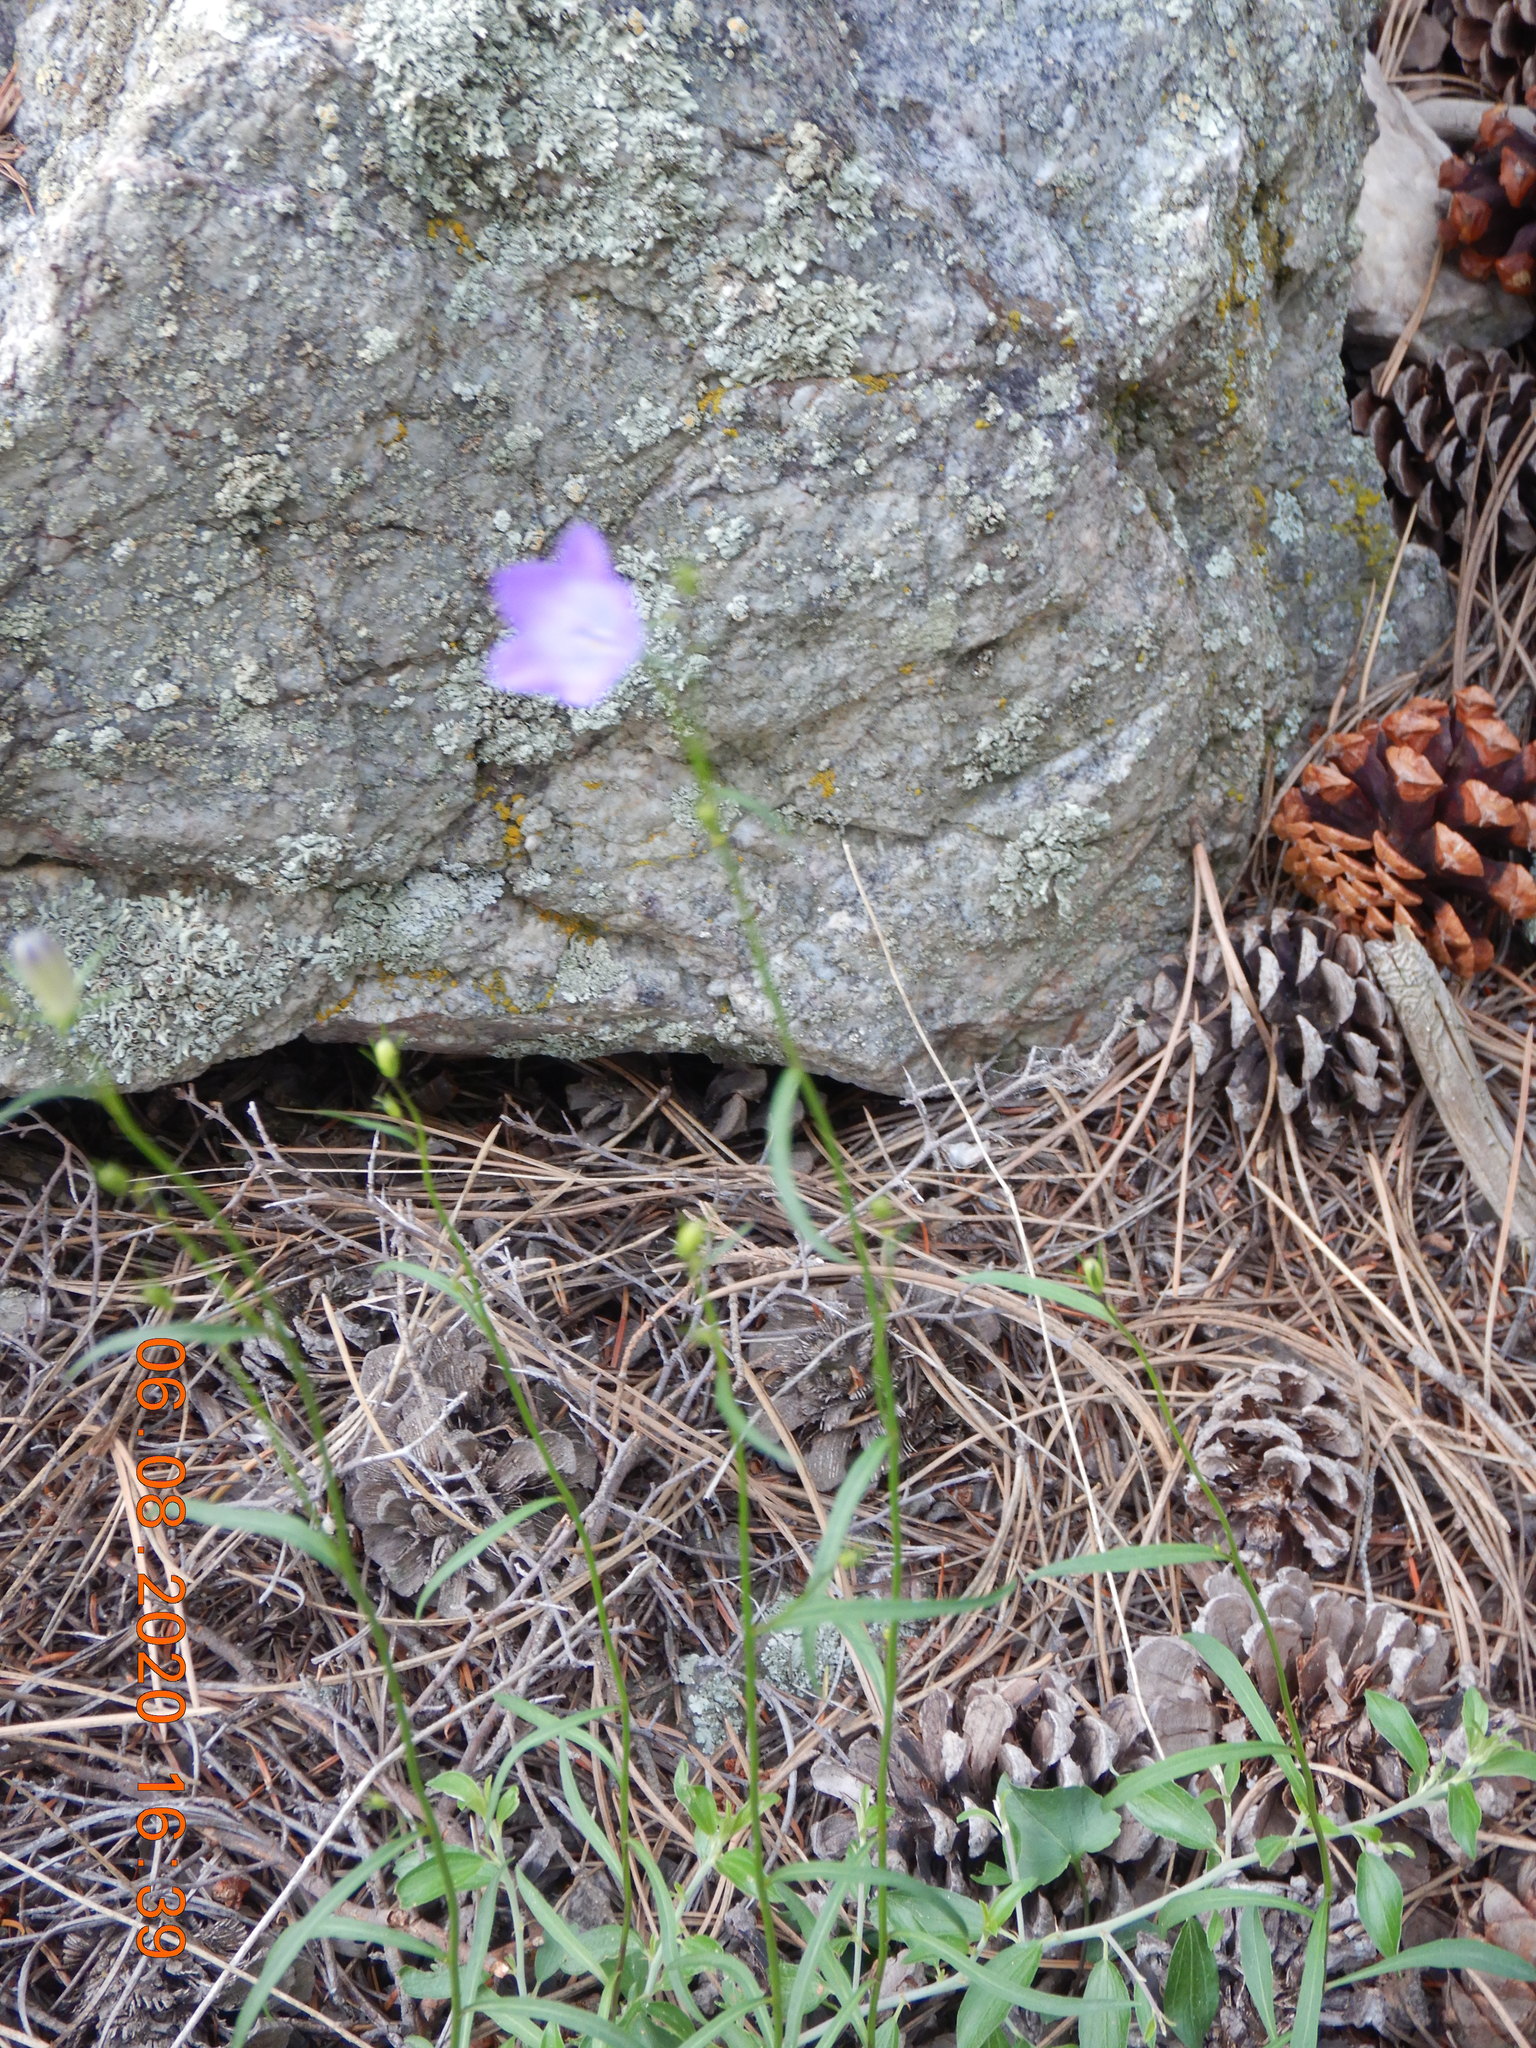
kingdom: Plantae
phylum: Tracheophyta
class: Magnoliopsida
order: Asterales
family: Campanulaceae
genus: Campanula
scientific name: Campanula petiolata
